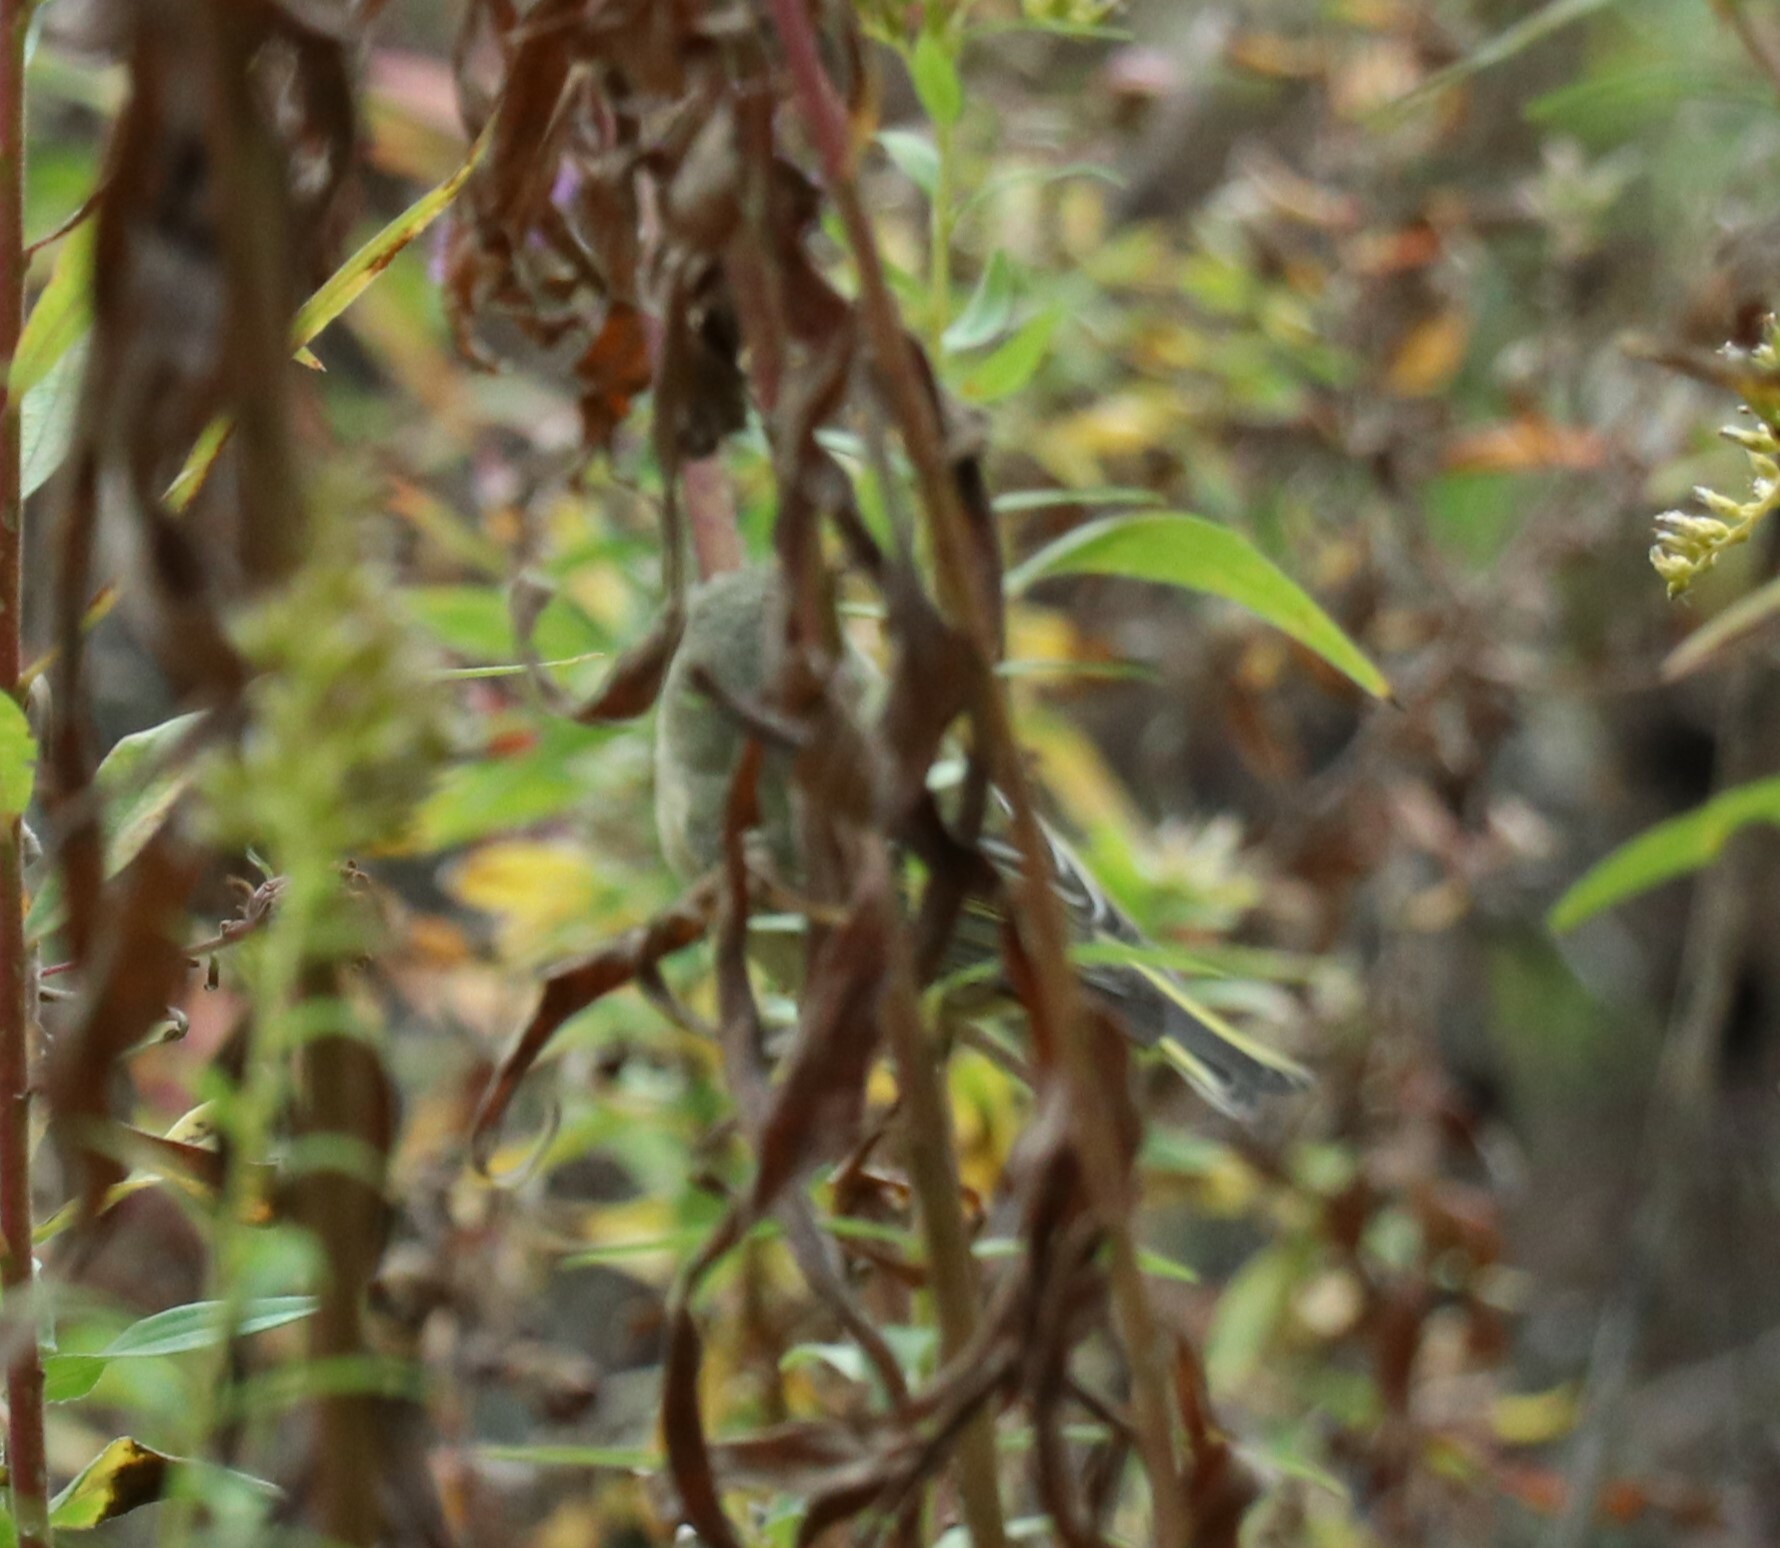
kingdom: Animalia
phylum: Chordata
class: Aves
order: Passeriformes
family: Regulidae
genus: Regulus
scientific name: Regulus calendula
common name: Ruby-crowned kinglet
